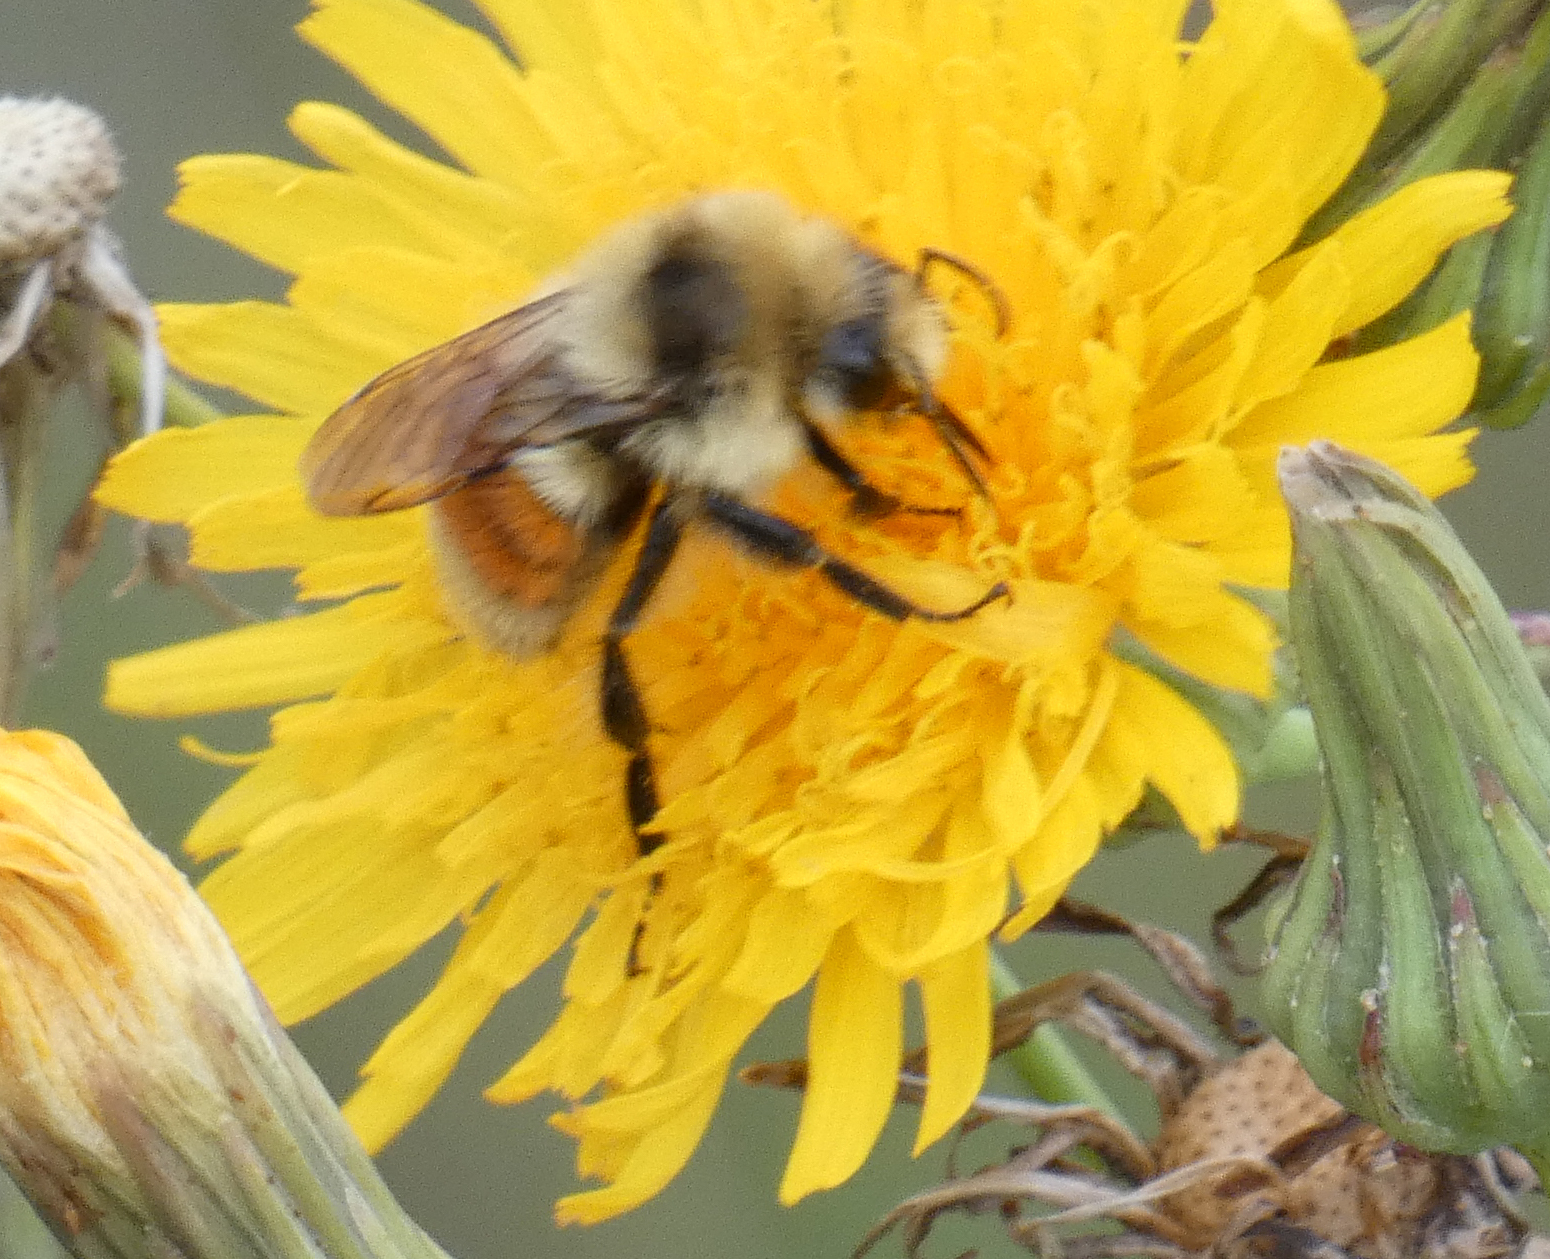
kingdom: Animalia
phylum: Arthropoda
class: Insecta
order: Hymenoptera
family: Apidae
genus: Bombus
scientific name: Bombus huntii
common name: Hunt bumble bee
